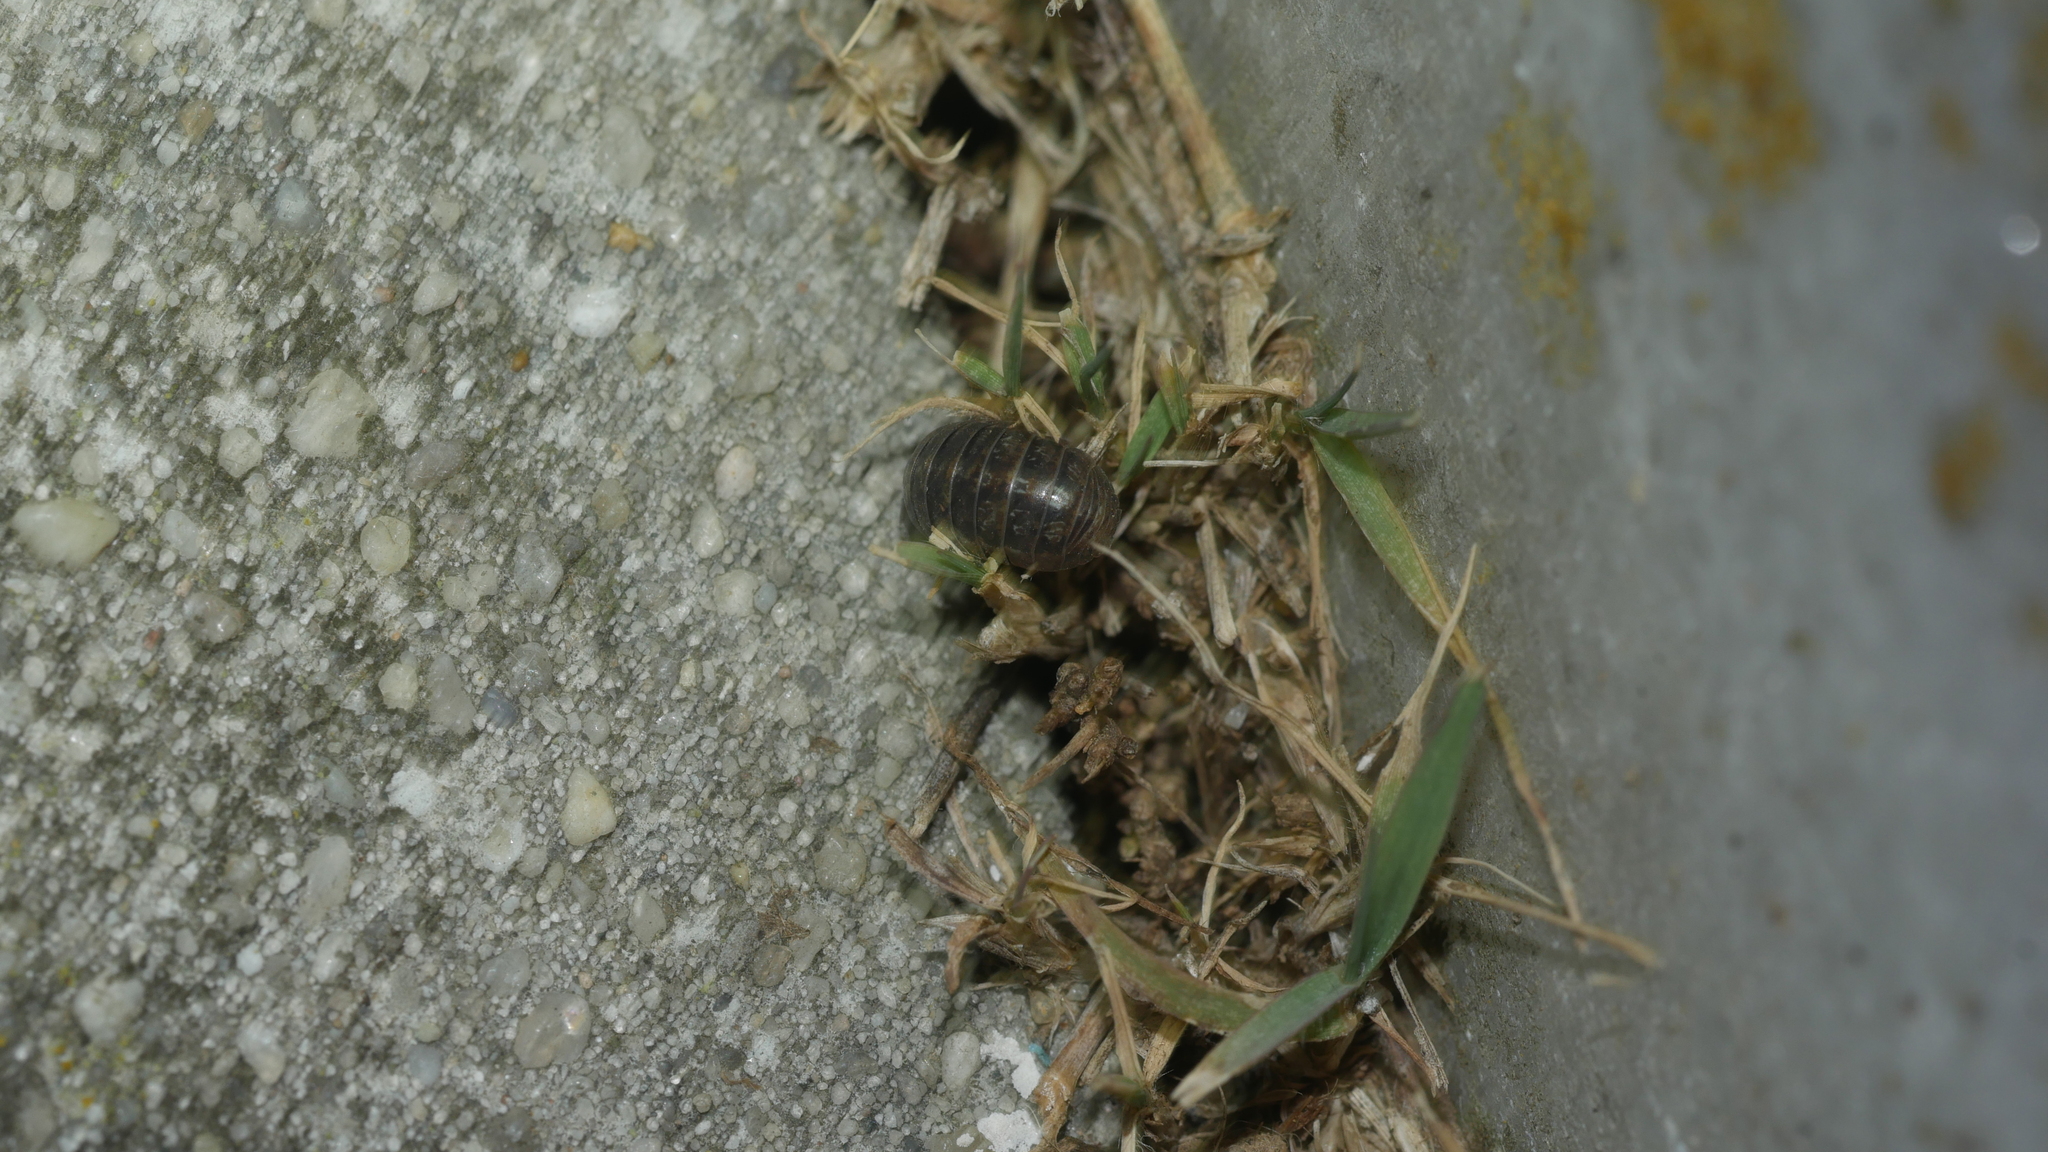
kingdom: Animalia
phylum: Arthropoda
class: Malacostraca
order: Isopoda
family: Armadillidiidae
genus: Armadillidium
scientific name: Armadillidium vulgare
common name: Common pill woodlouse
